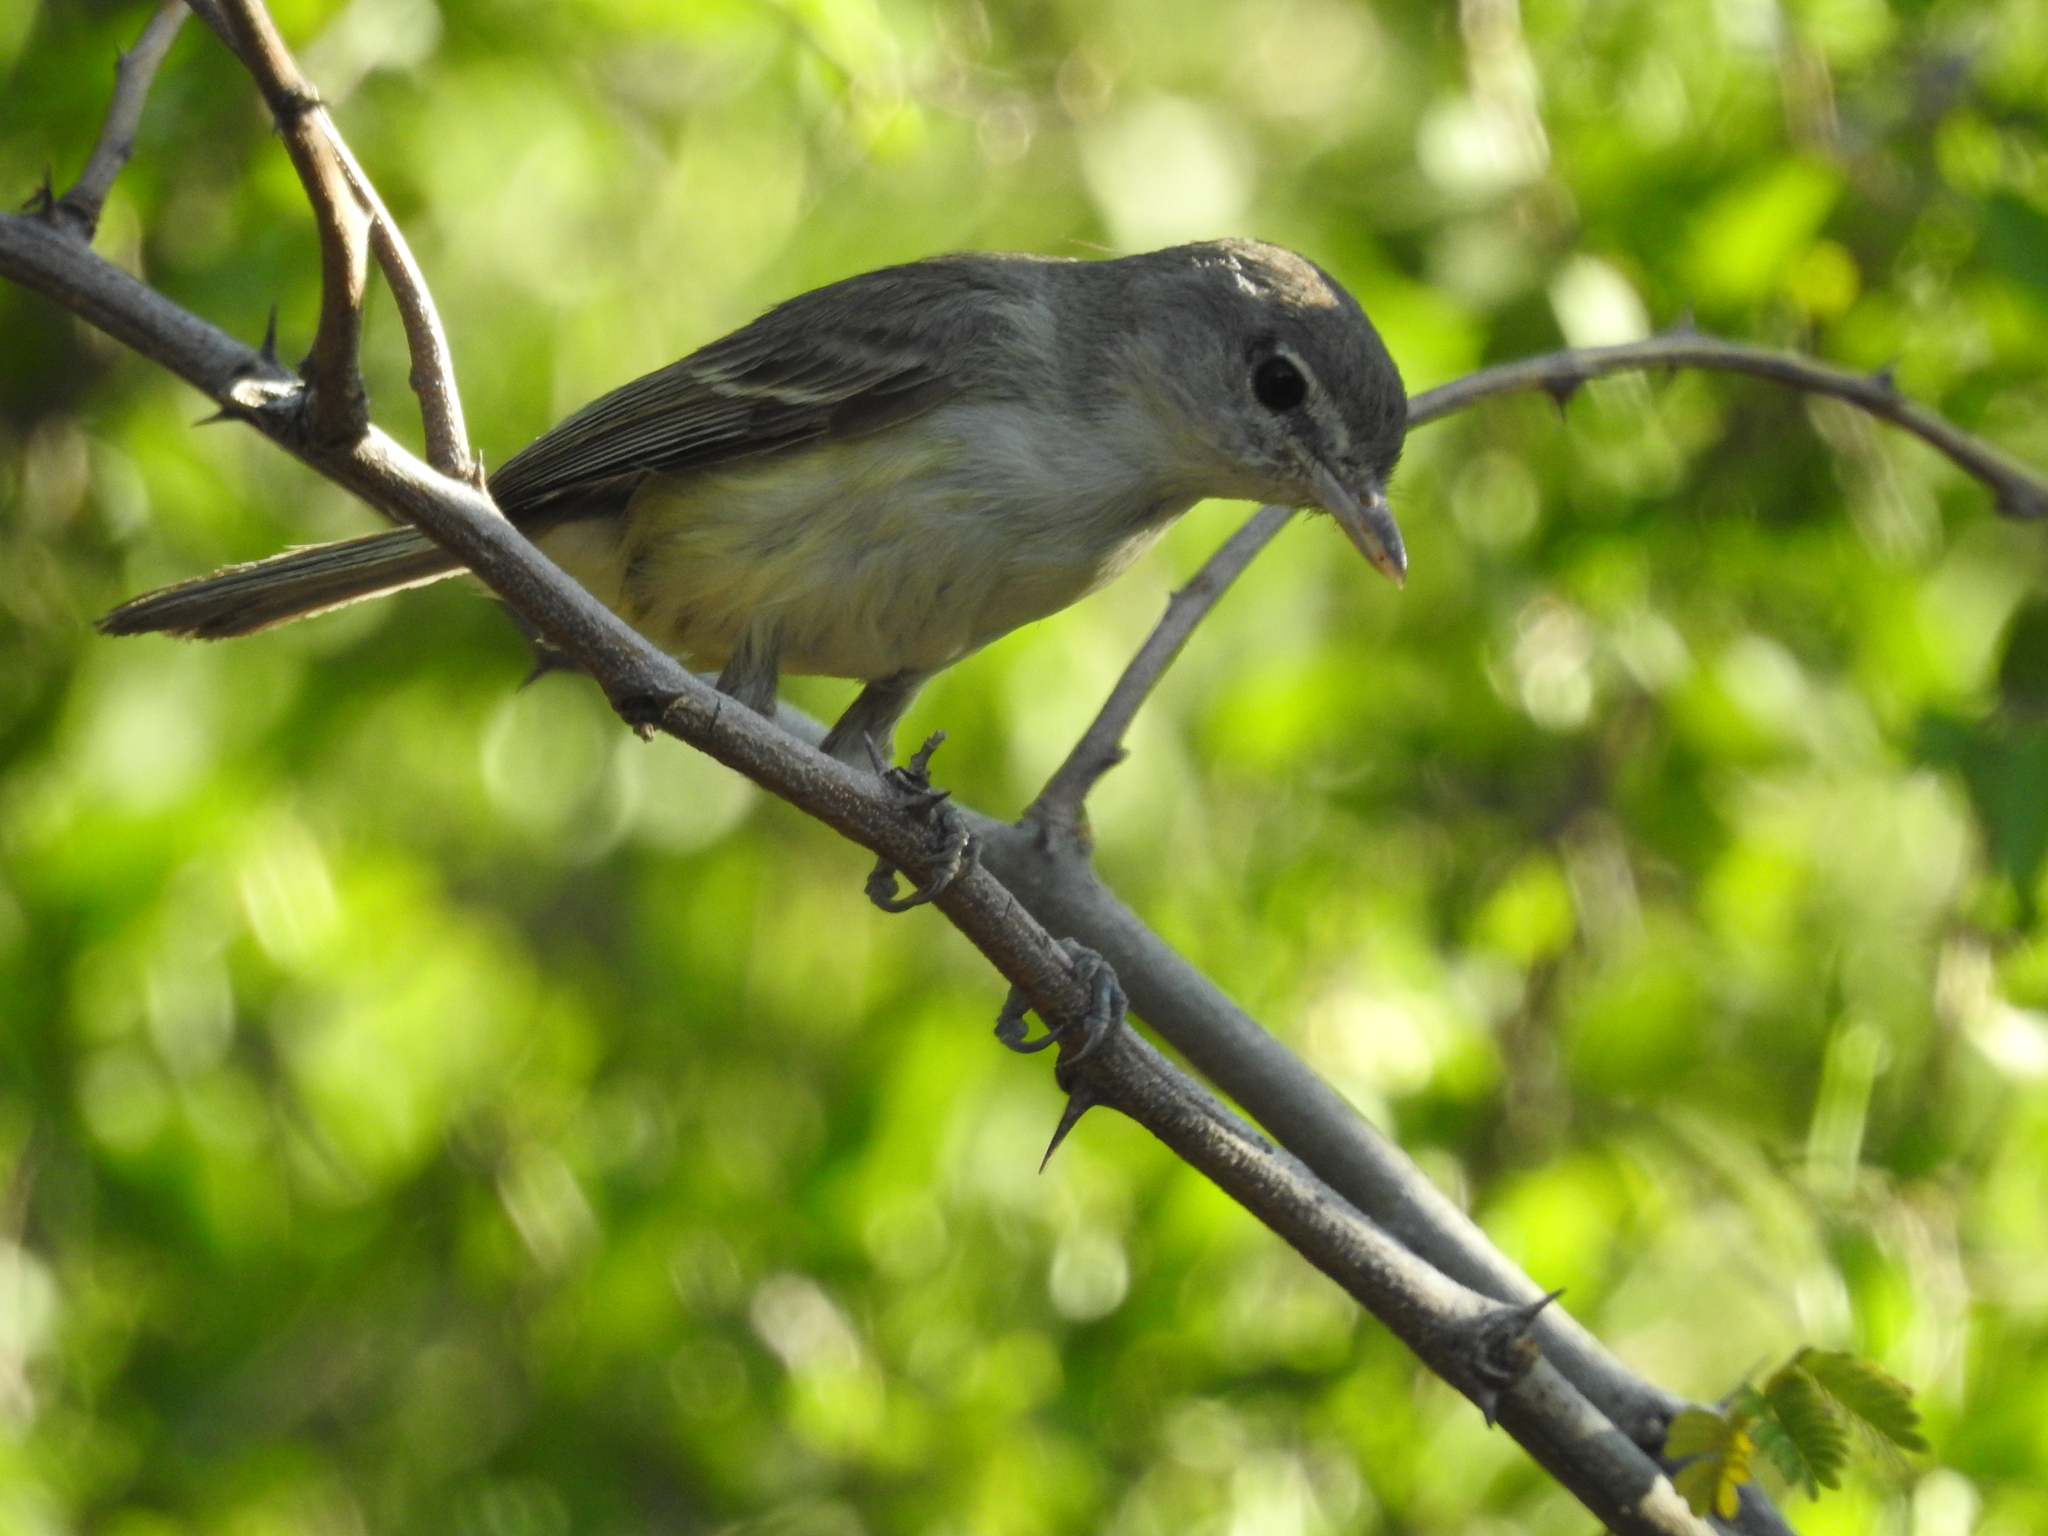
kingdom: Animalia
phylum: Chordata
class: Aves
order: Passeriformes
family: Vireonidae
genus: Vireo
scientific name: Vireo bellii
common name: Bell's vireo
